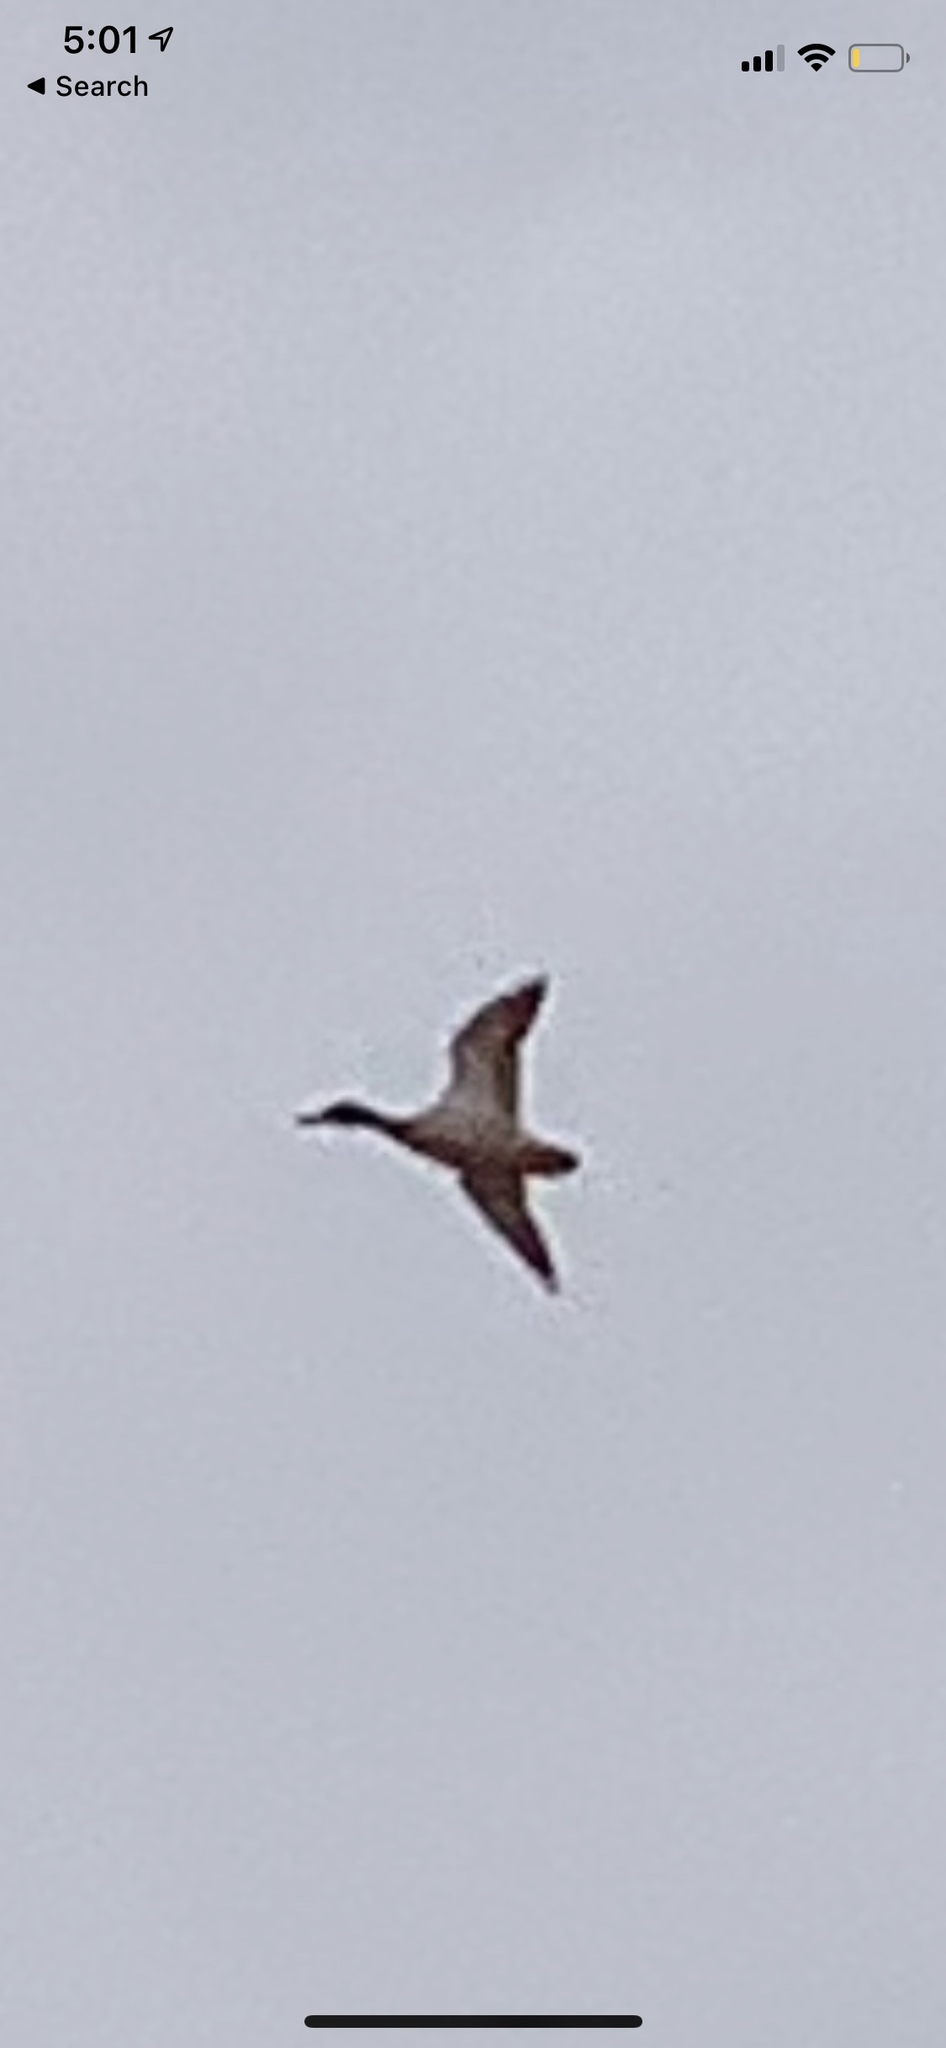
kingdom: Animalia
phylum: Chordata
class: Aves
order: Anseriformes
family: Anatidae
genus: Anas
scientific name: Anas platyrhynchos
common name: Mallard
